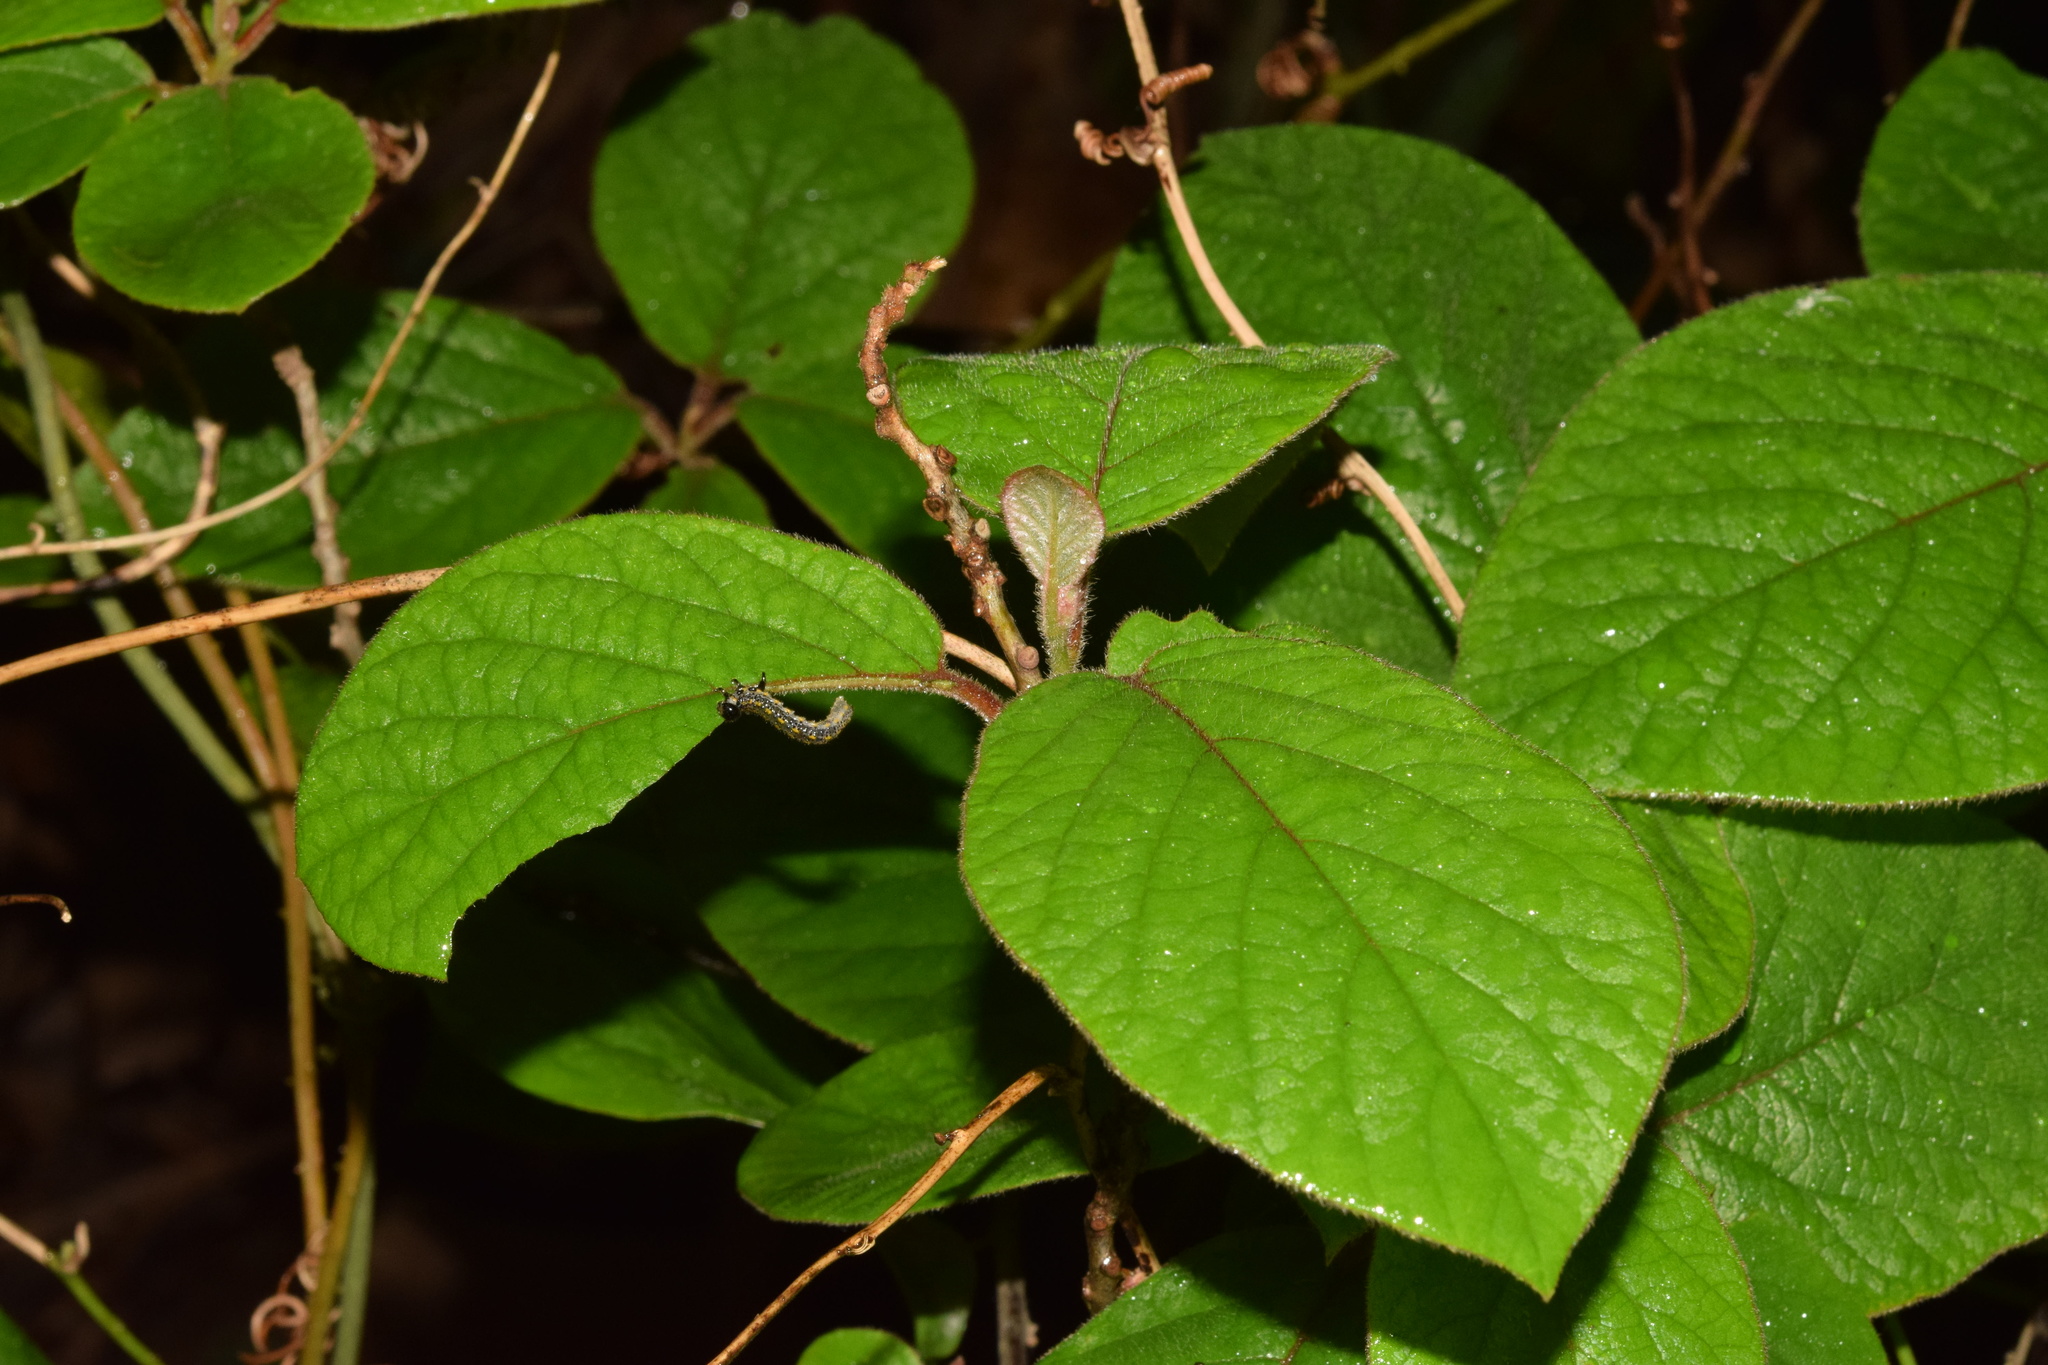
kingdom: Plantae
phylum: Tracheophyta
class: Magnoliopsida
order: Ericales
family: Ebenaceae
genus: Diospyros
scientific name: Diospyros villosa
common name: Hairy star-apple
